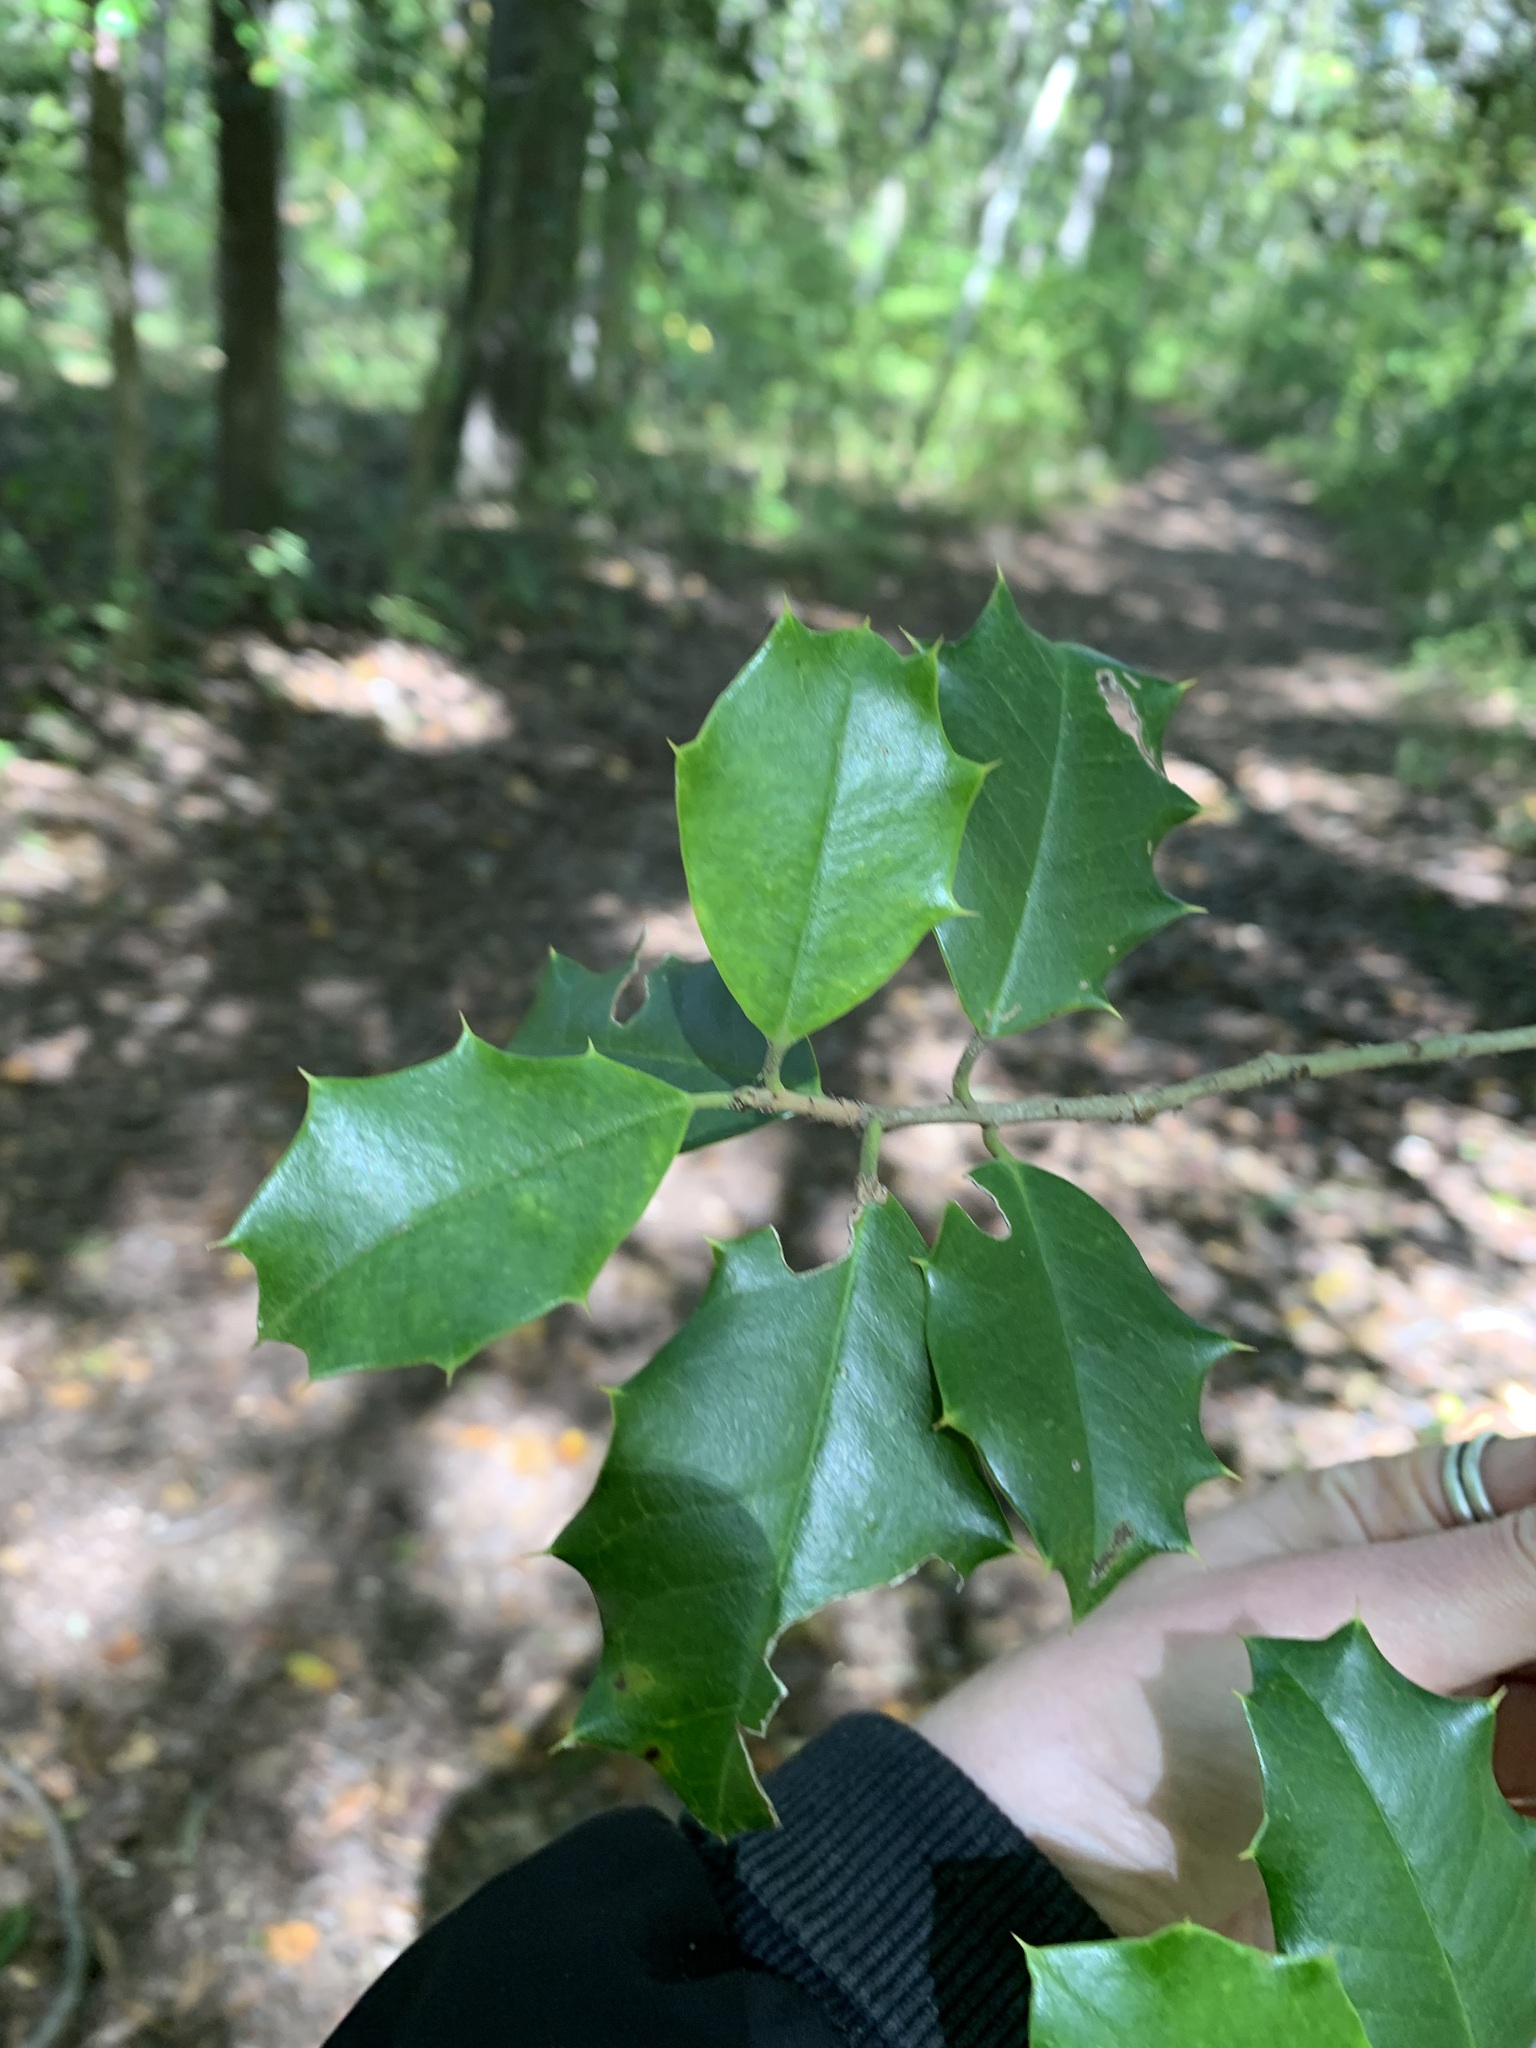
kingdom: Plantae
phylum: Tracheophyta
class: Magnoliopsida
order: Aquifoliales
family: Aquifoliaceae
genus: Ilex
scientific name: Ilex opaca
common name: American holly
